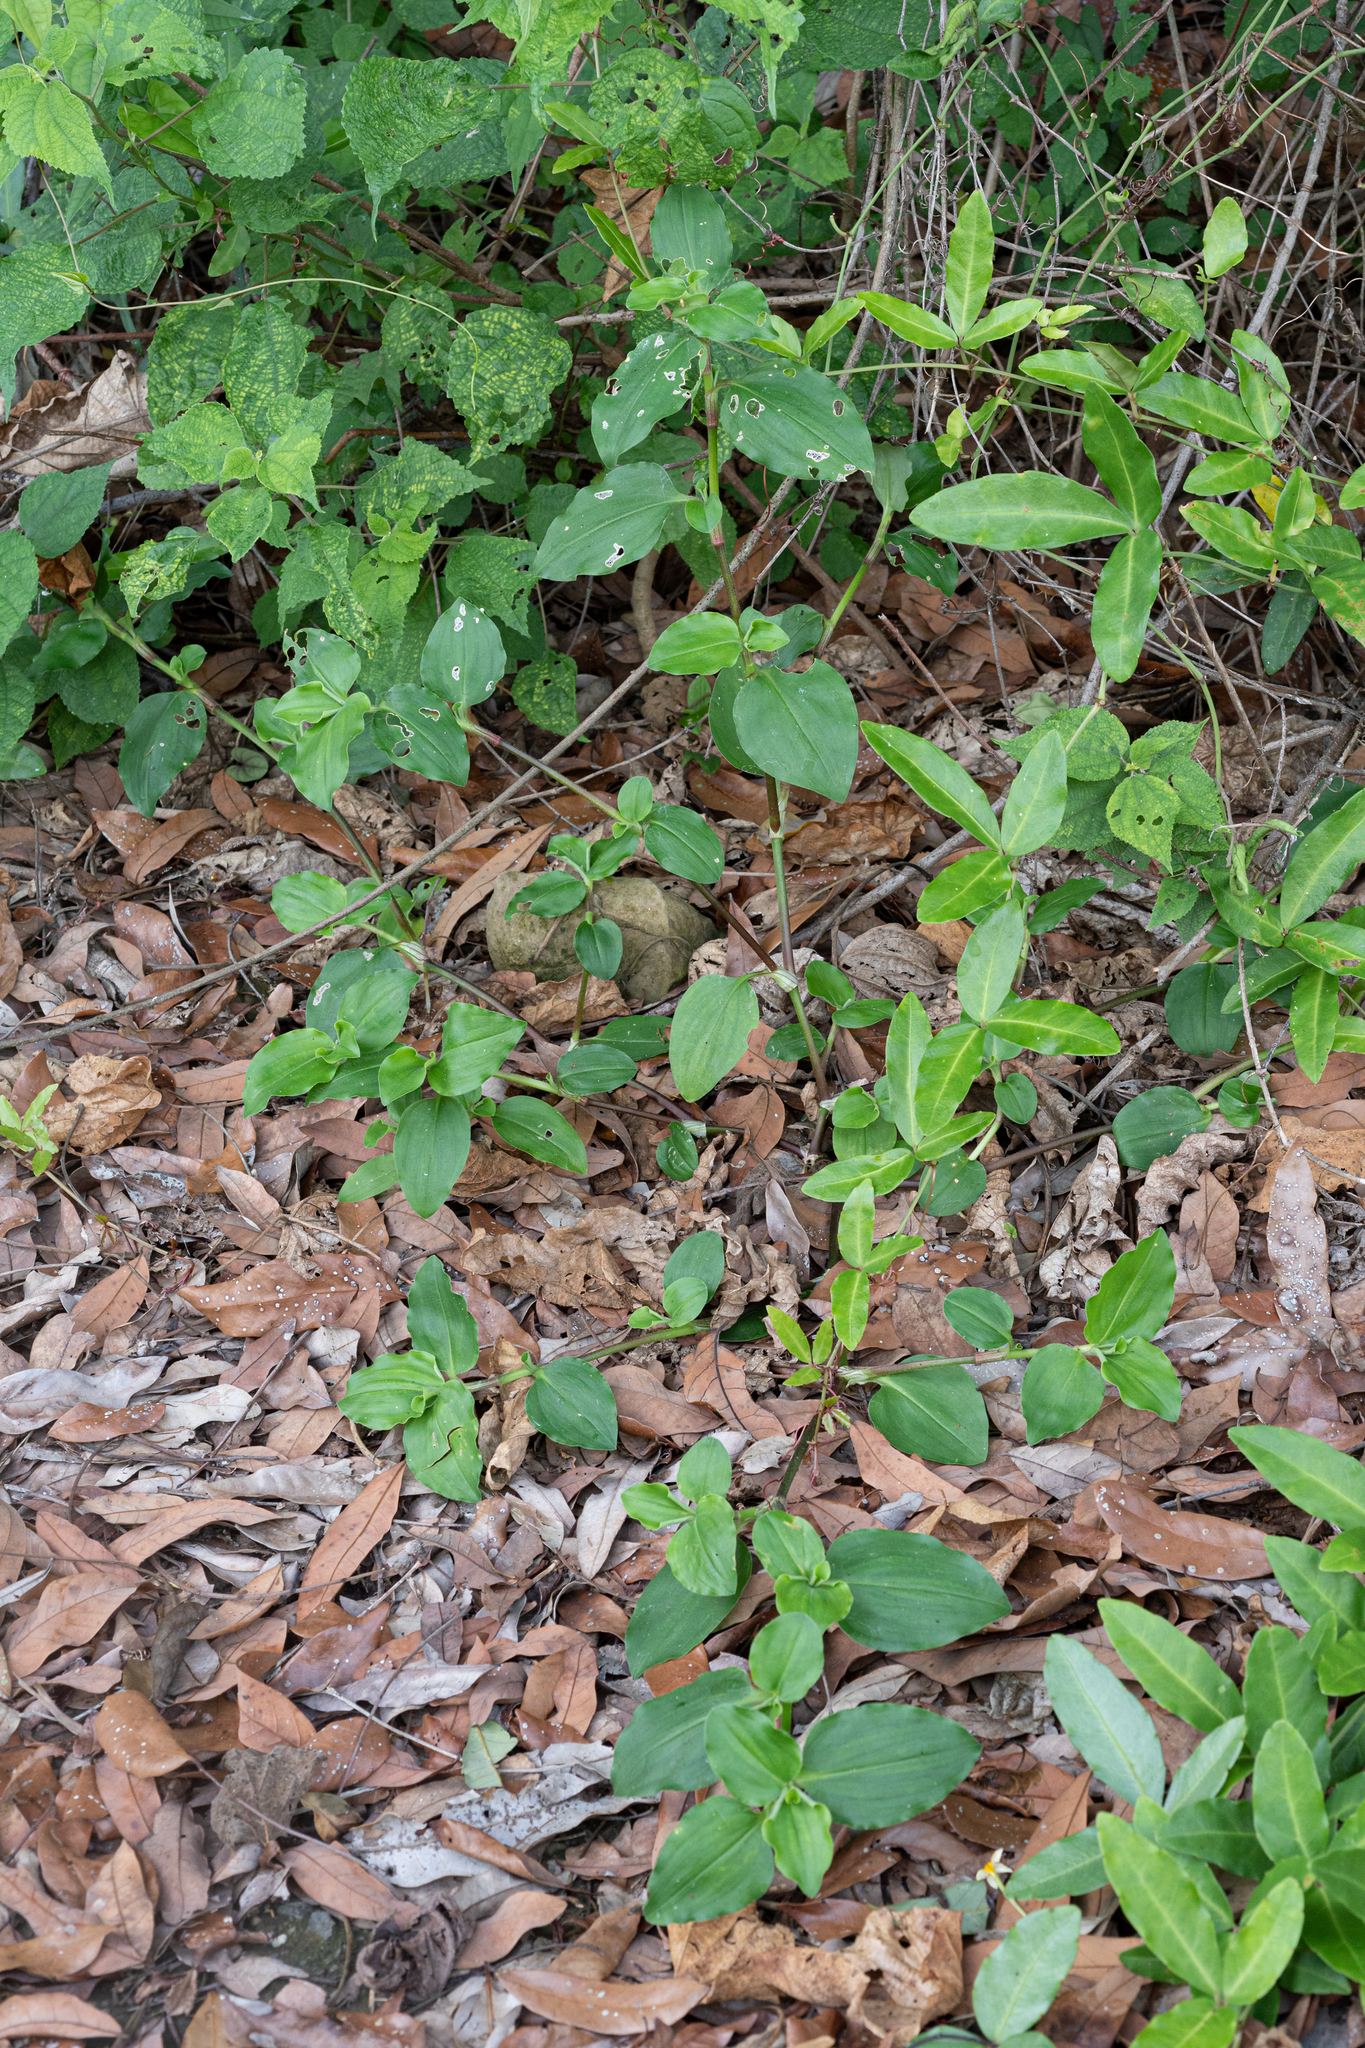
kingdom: Plantae
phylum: Tracheophyta
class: Liliopsida
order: Commelinales
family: Commelinaceae
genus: Commelina
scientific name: Commelina benghalensis
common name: Jio
